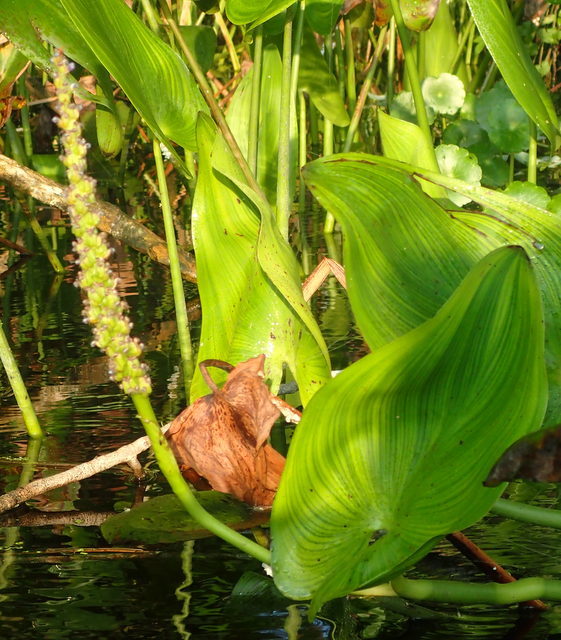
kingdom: Plantae
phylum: Tracheophyta
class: Liliopsida
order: Commelinales
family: Pontederiaceae
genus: Pontederia
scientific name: Pontederia cordata
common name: Pickerelweed
